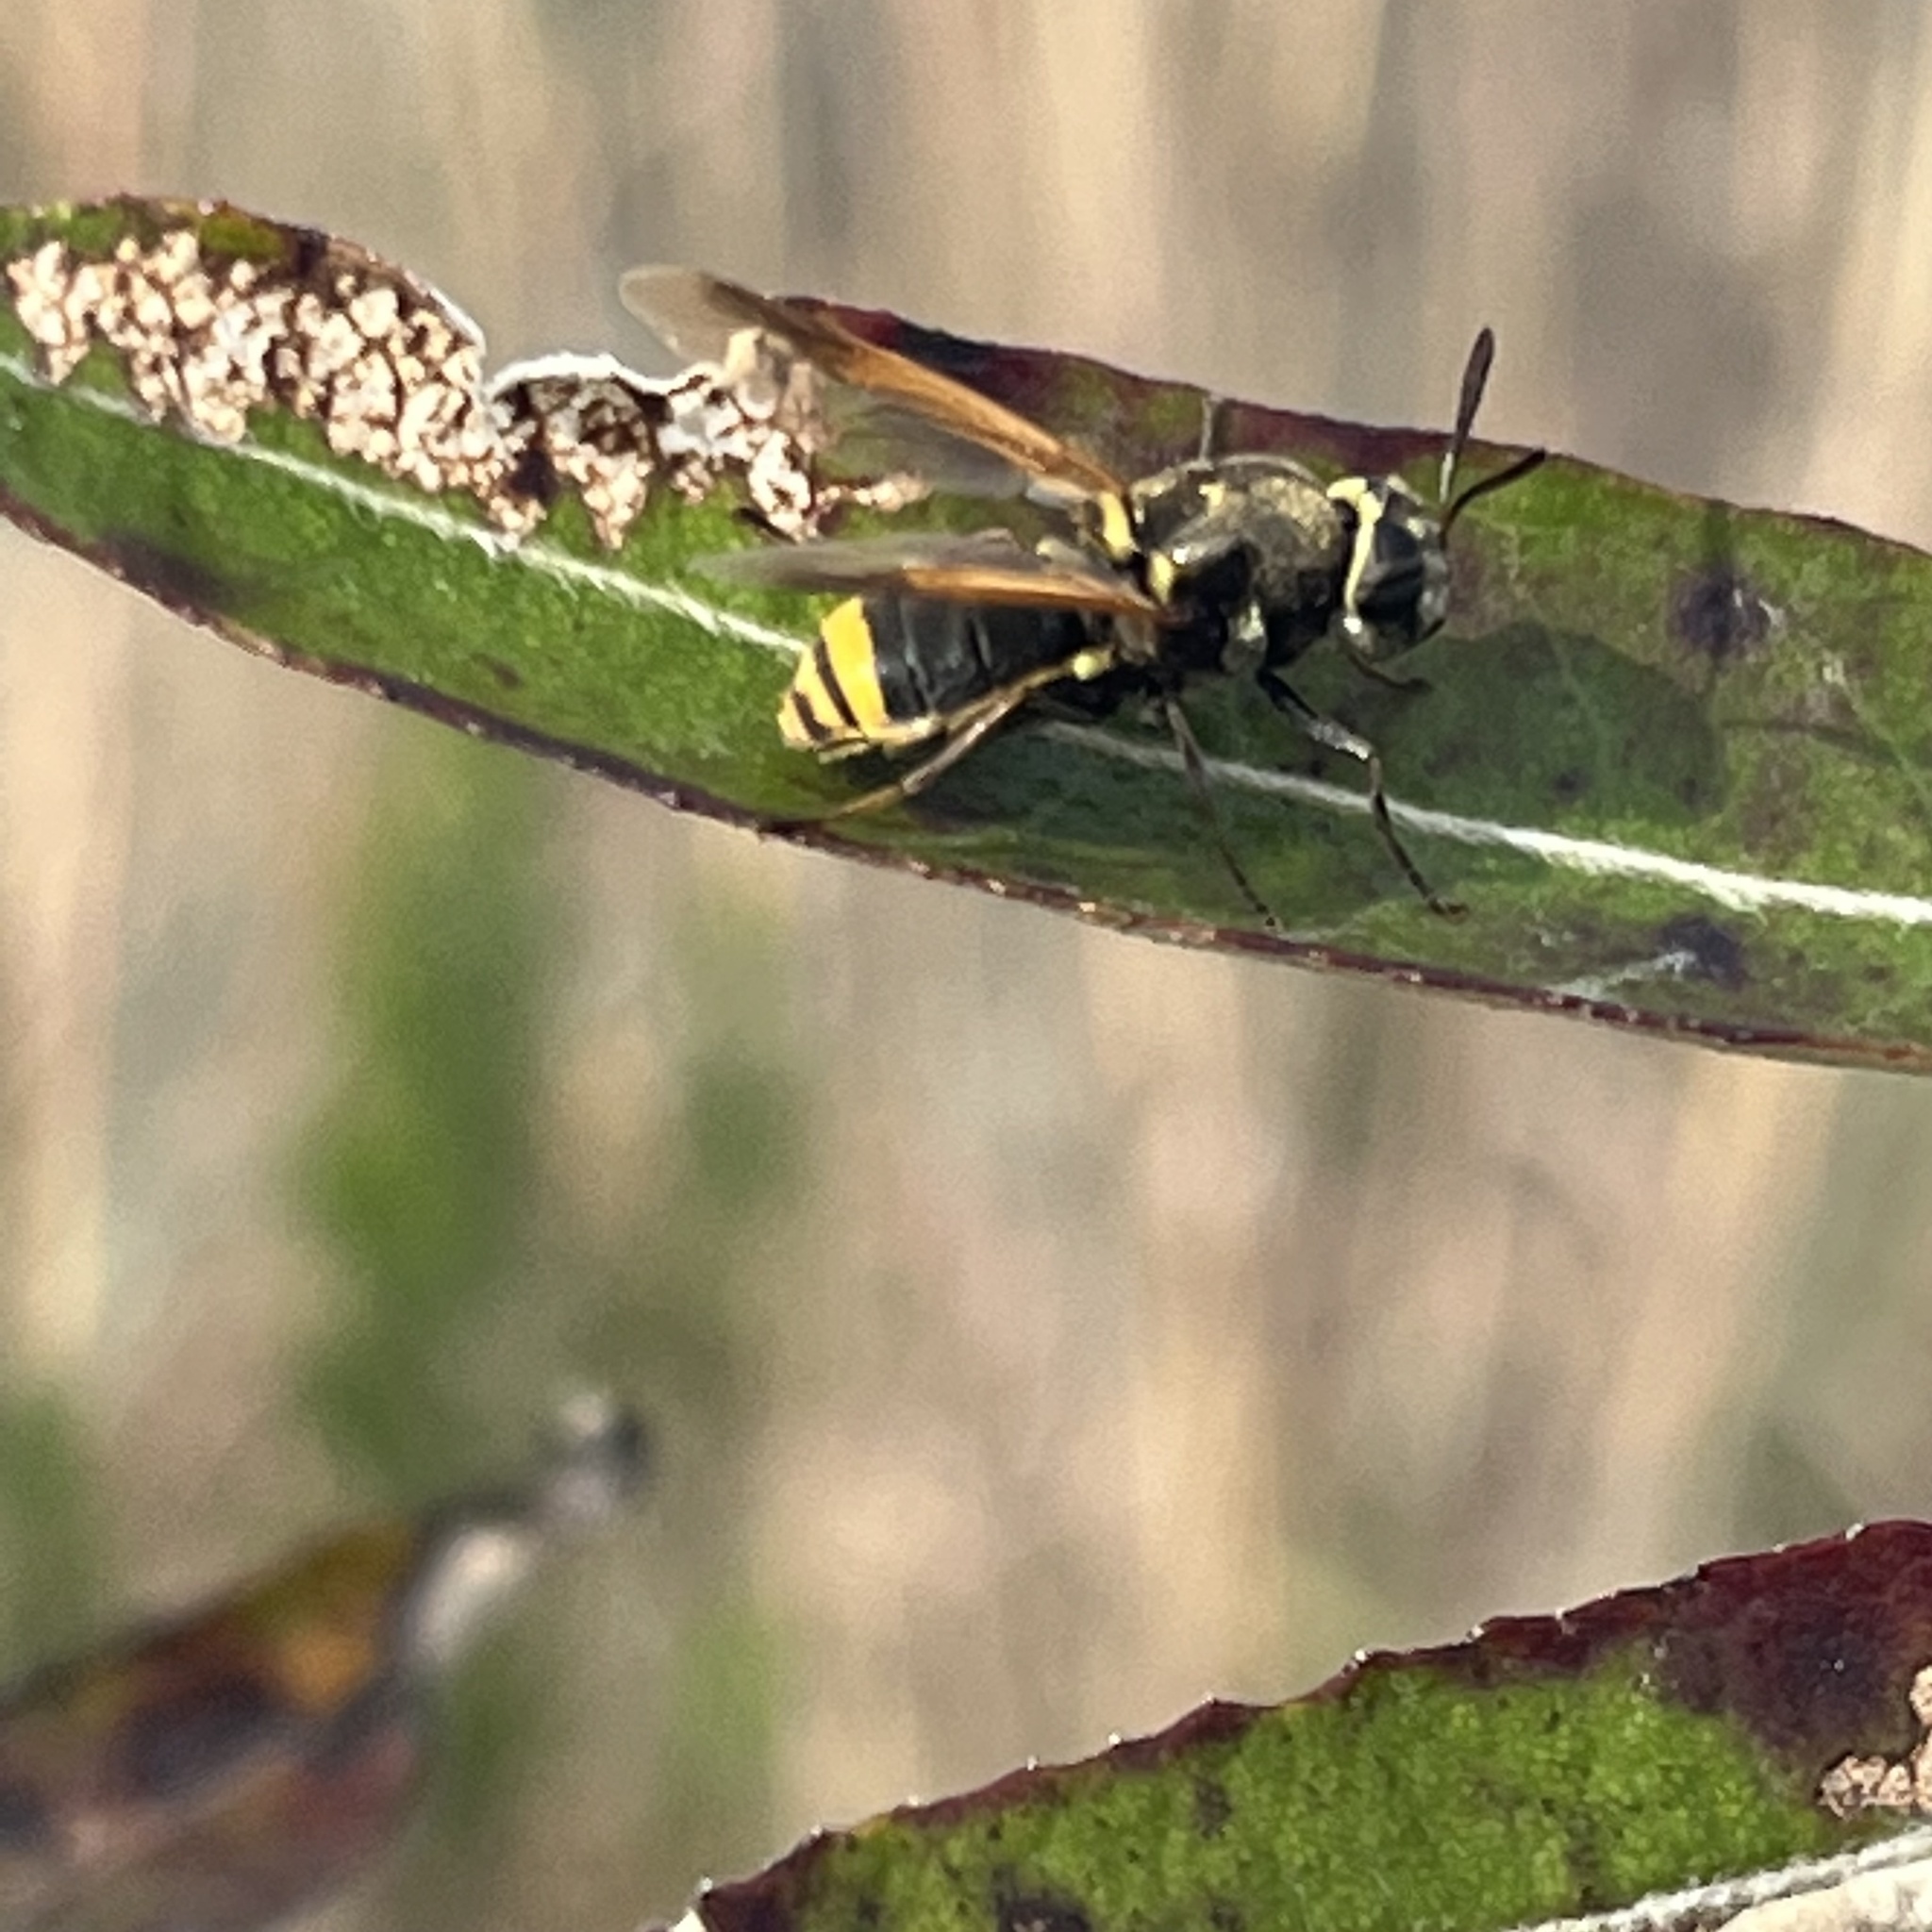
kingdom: Animalia
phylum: Arthropoda
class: Insecta
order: Diptera
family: Stratiomyidae
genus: Hoplitimyia
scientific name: Hoplitimyia mutabilis
